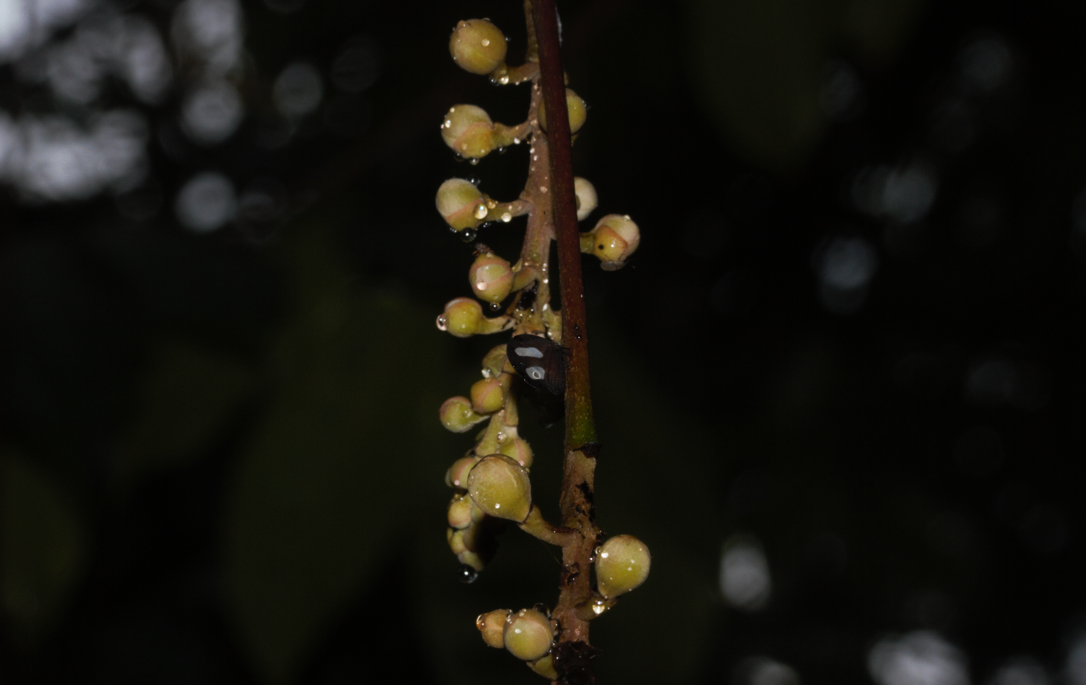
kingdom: Animalia
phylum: Arthropoda
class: Insecta
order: Hemiptera
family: Membracidae
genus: Membracis
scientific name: Membracis fabricii
